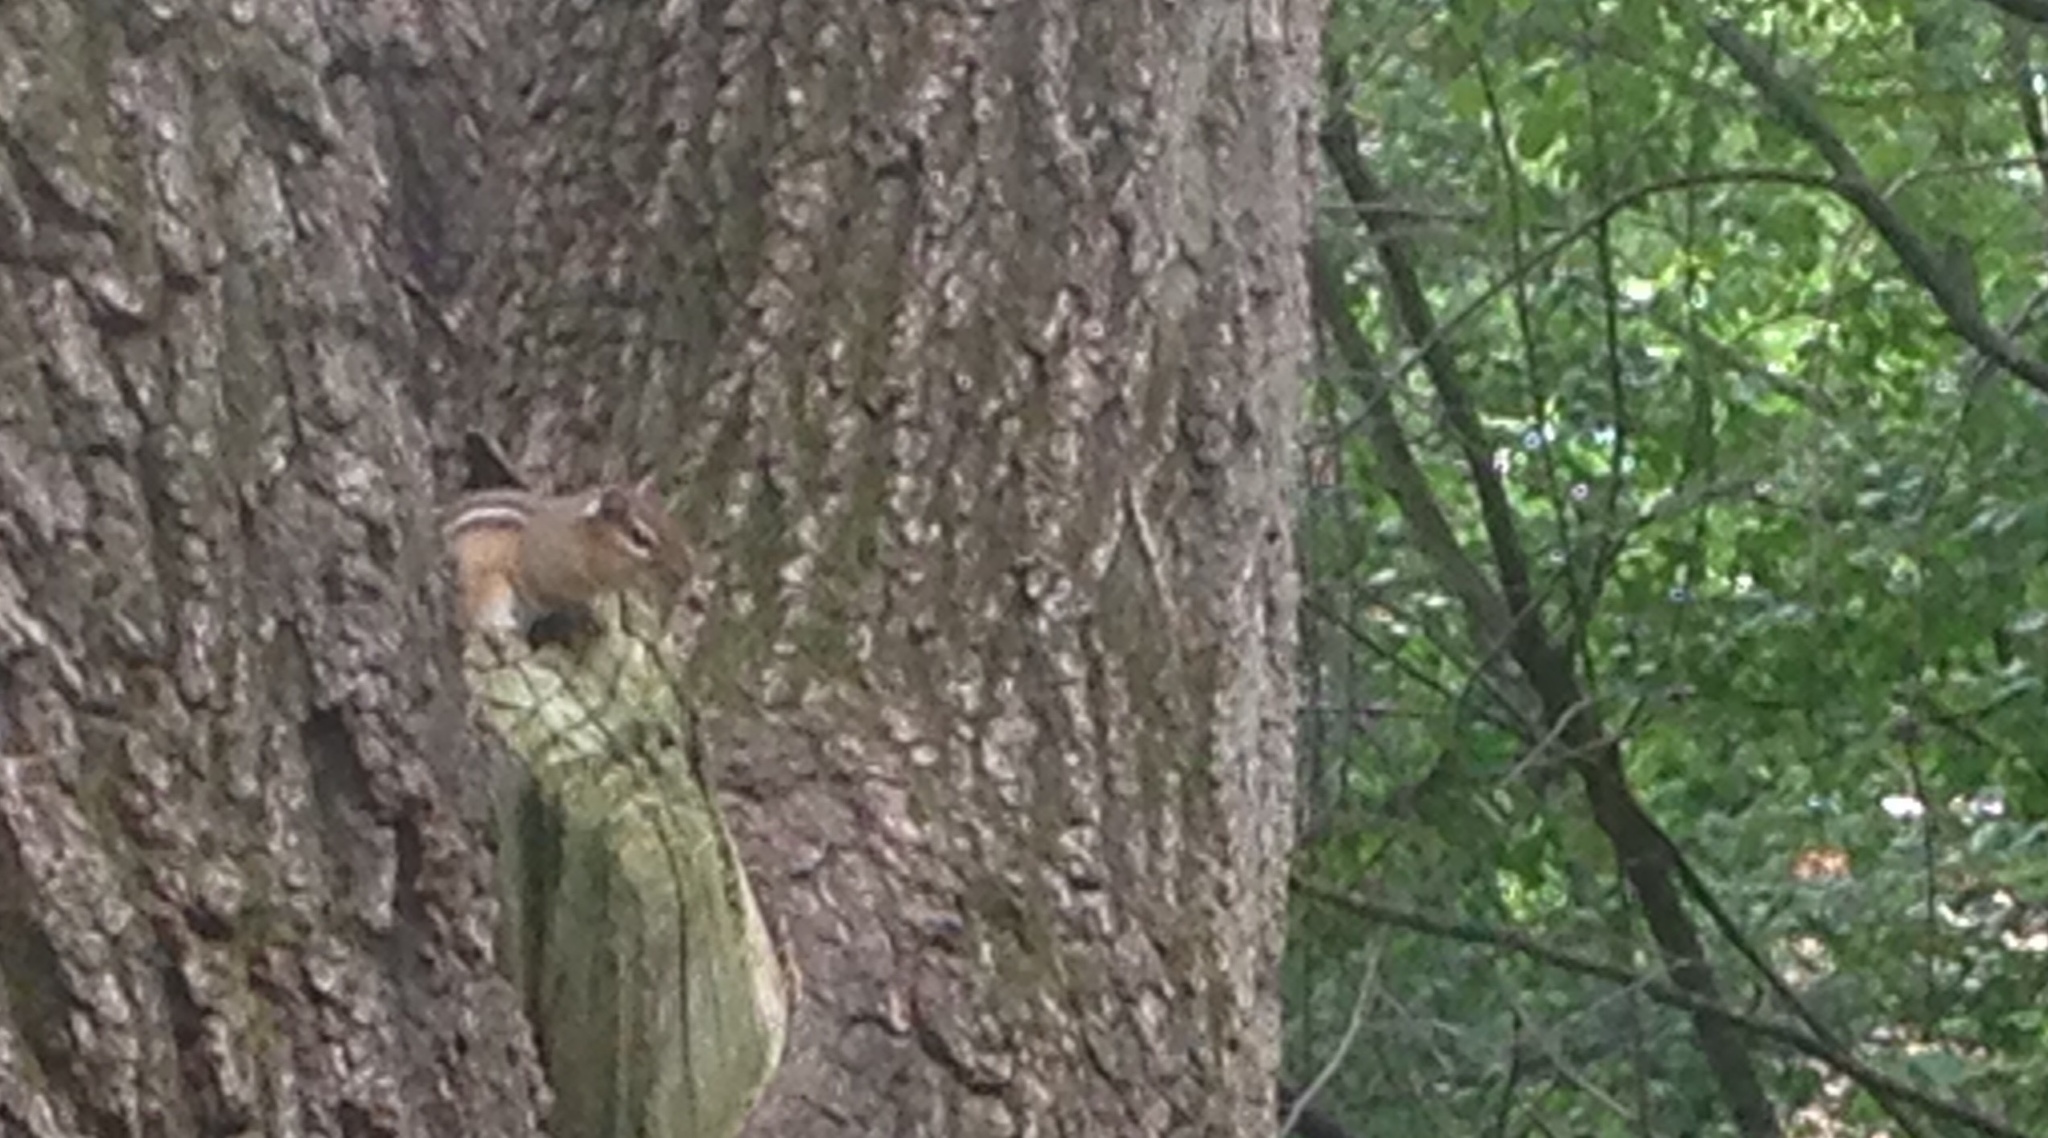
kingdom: Animalia
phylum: Chordata
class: Mammalia
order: Rodentia
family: Sciuridae
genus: Tamias
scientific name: Tamias striatus
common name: Eastern chipmunk
